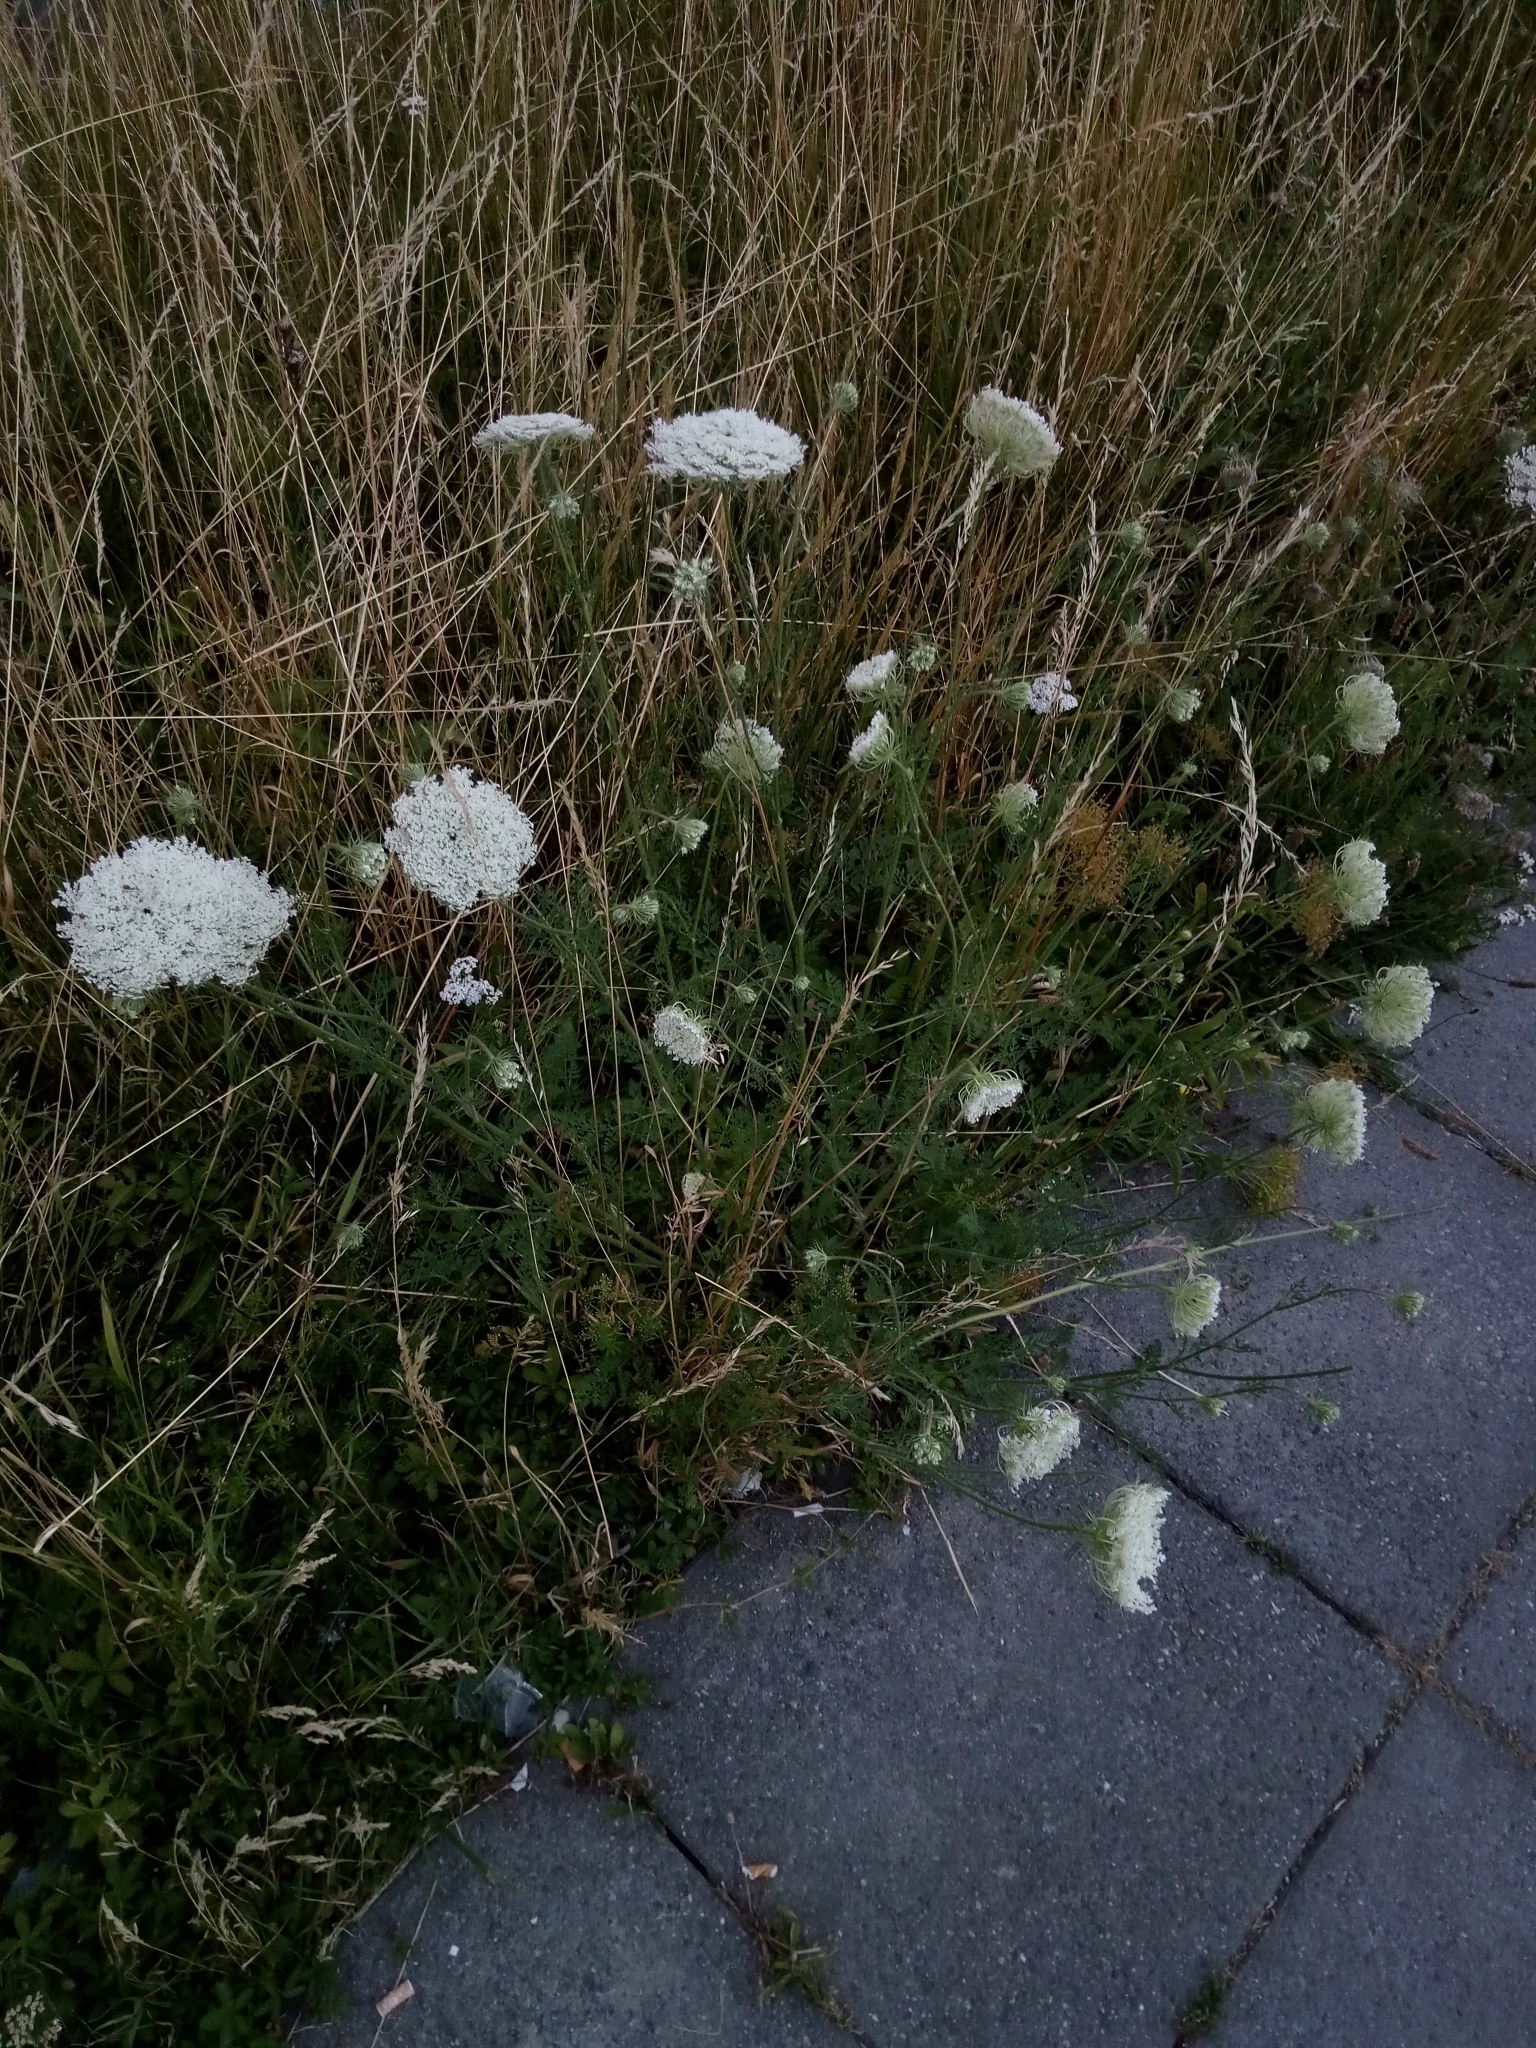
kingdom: Plantae
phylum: Tracheophyta
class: Magnoliopsida
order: Apiales
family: Apiaceae
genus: Daucus
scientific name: Daucus carota
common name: Wild carrot
